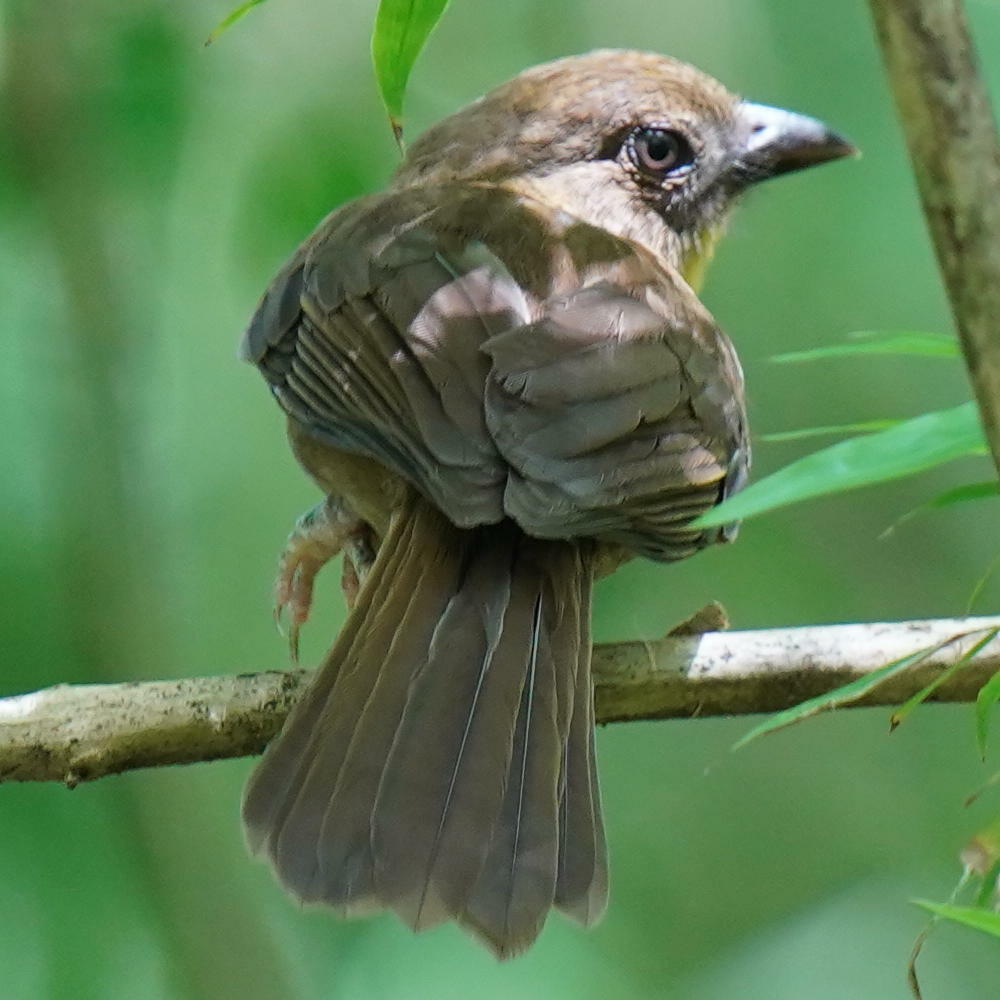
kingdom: Animalia
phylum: Chordata
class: Aves
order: Passeriformes
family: Cardinalidae
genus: Habia
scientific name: Habia fuscicauda
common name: Red-throated ant-tanager
